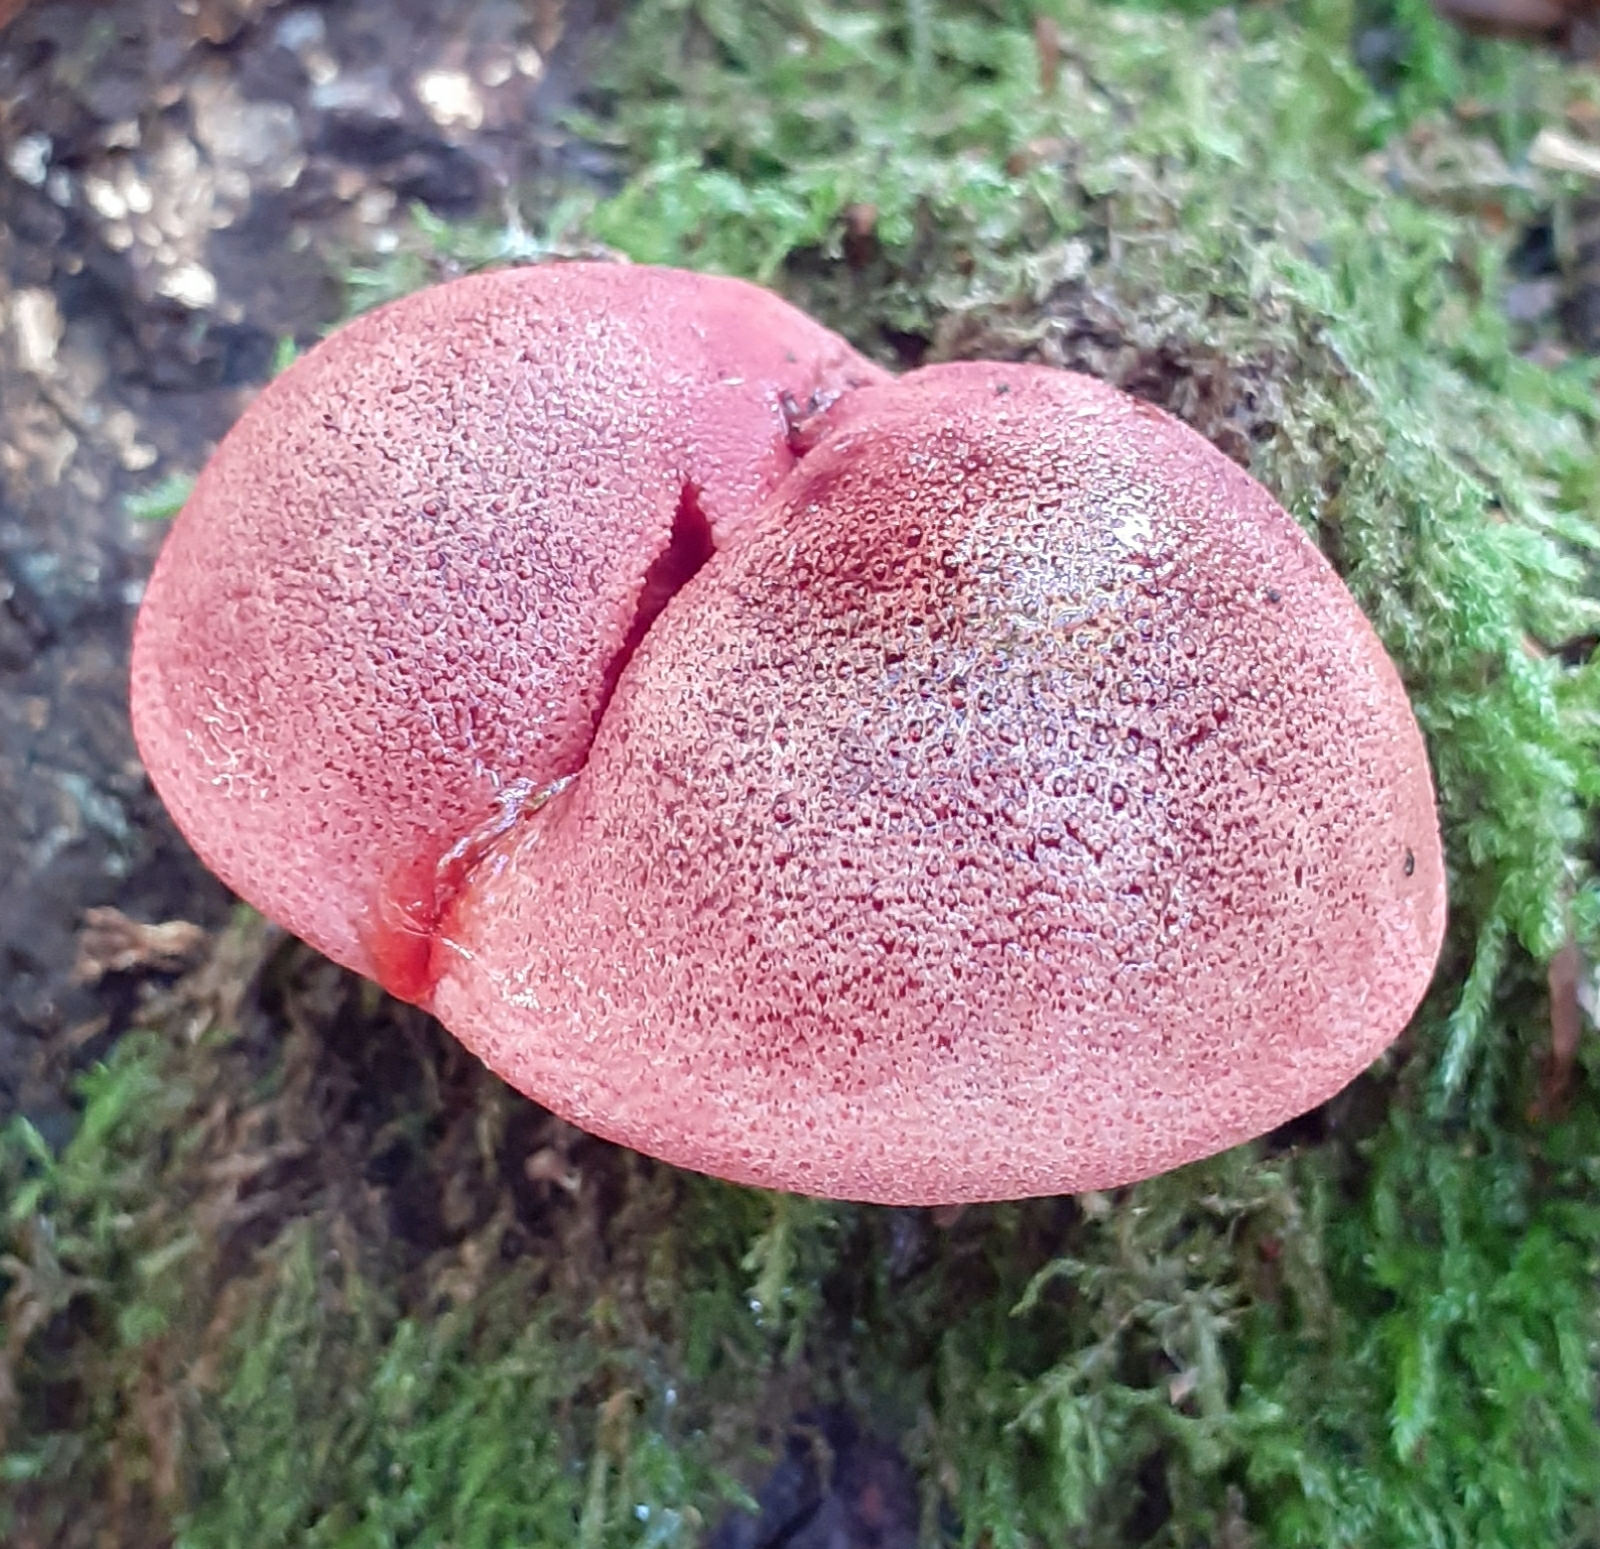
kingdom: Fungi
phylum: Basidiomycota
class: Agaricomycetes
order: Agaricales
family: Fistulinaceae
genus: Fistulina
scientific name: Fistulina hepatica
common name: Beef-steak fungus
